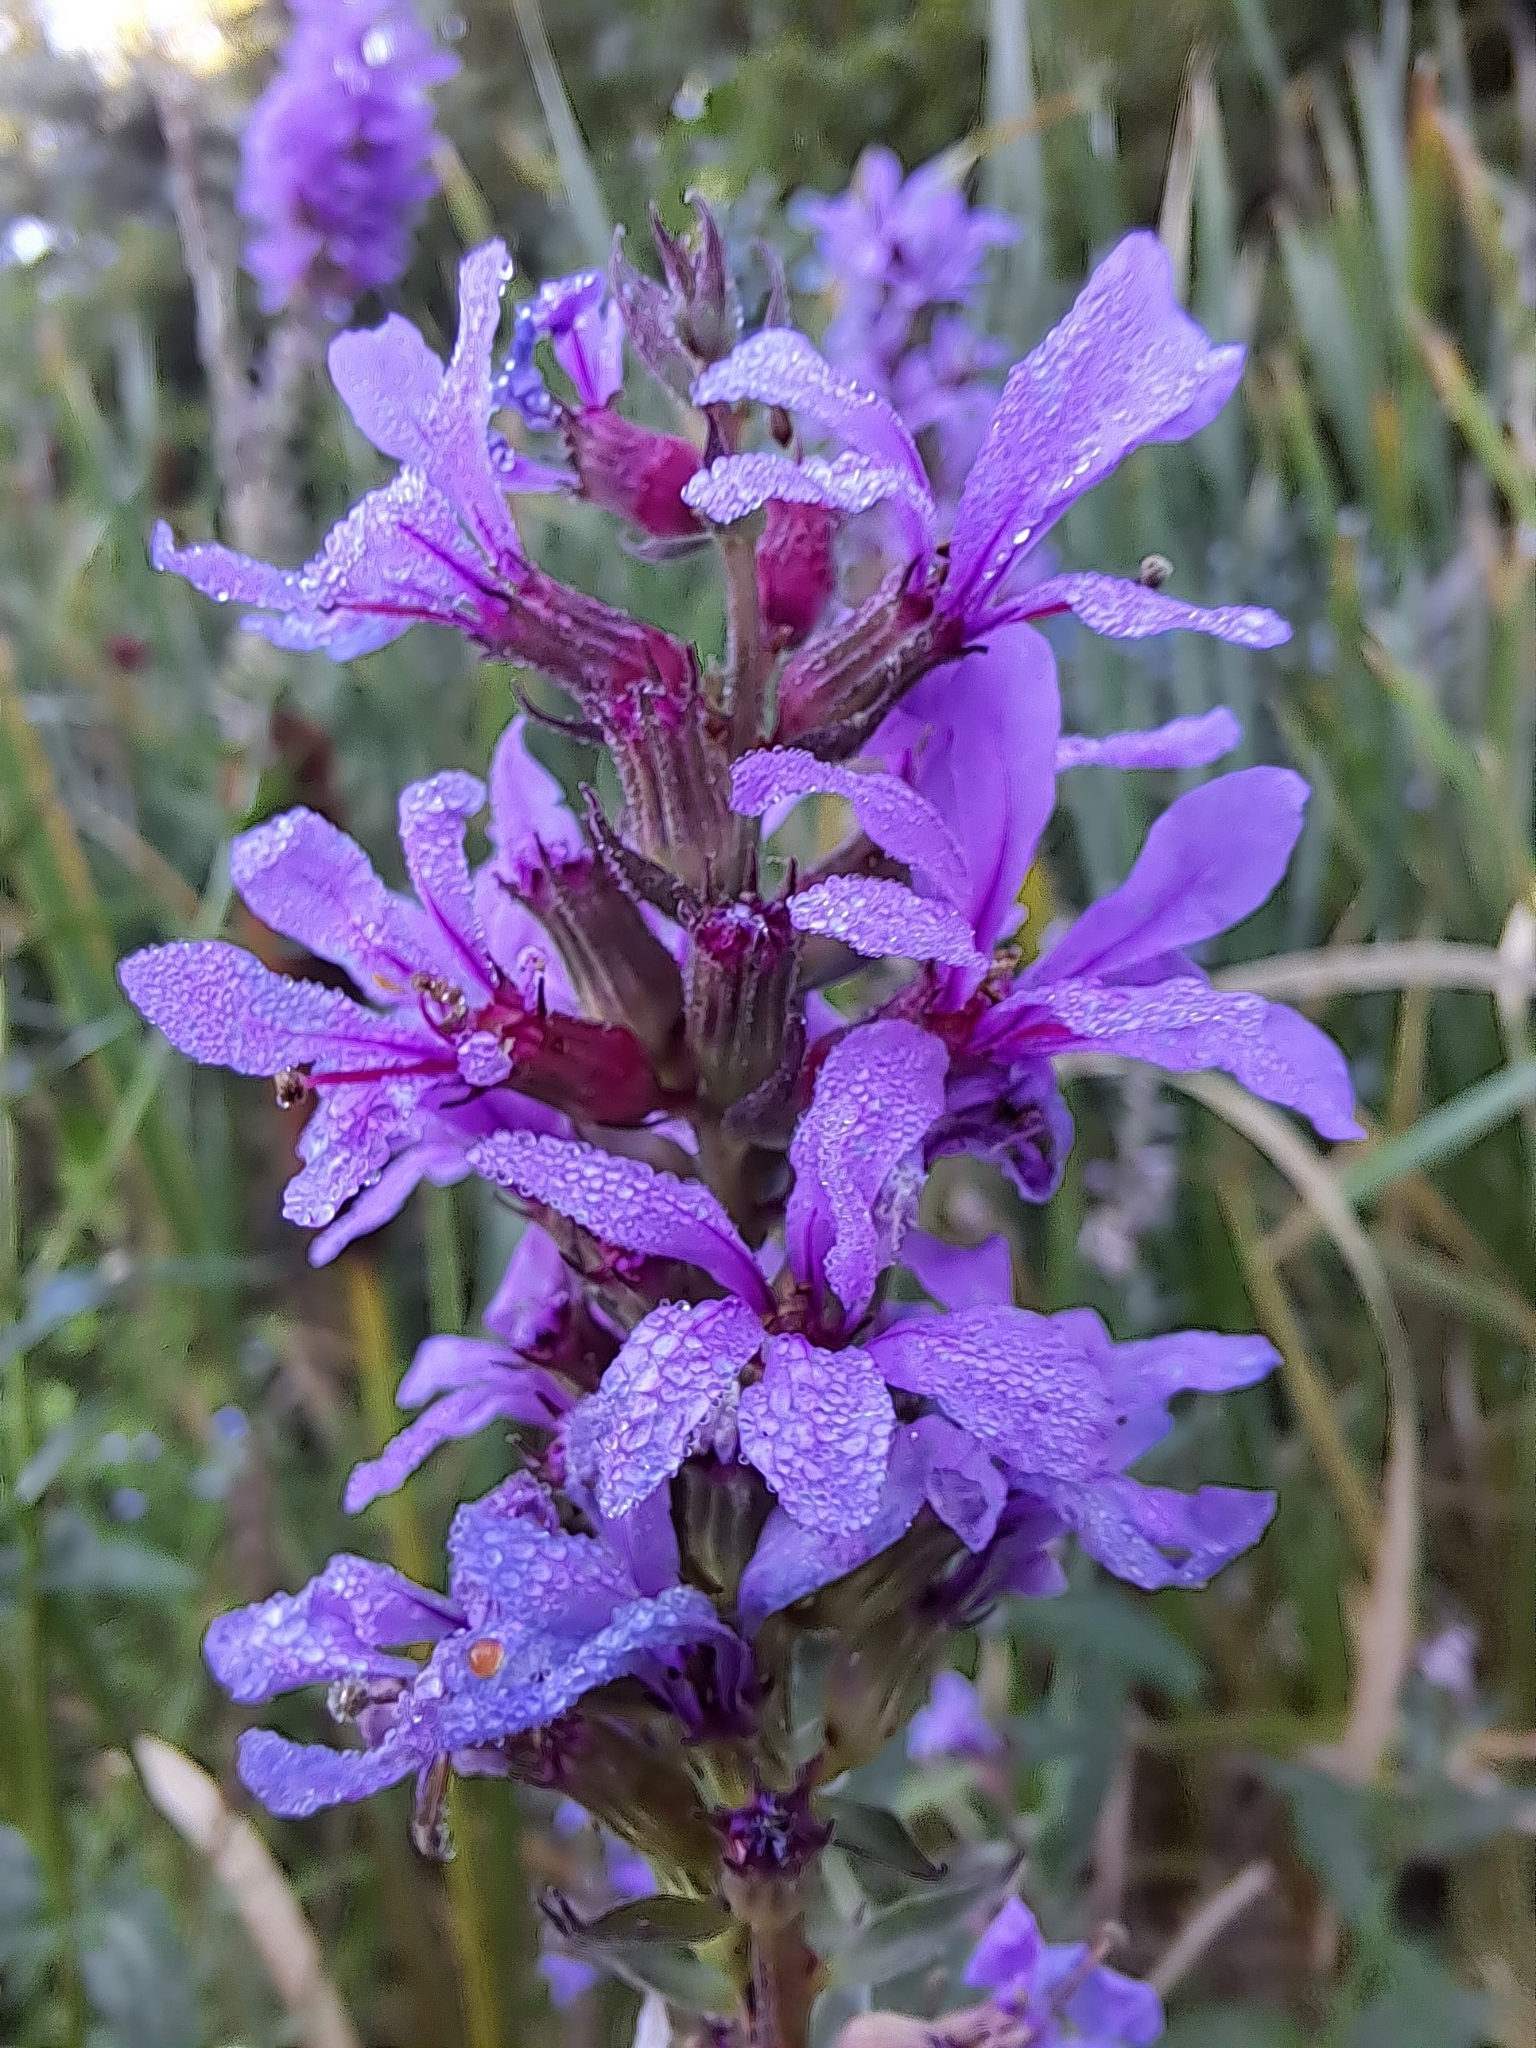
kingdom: Plantae
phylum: Tracheophyta
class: Magnoliopsida
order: Myrtales
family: Lythraceae
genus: Lythrum
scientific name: Lythrum salicaria
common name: Purple loosestrife
